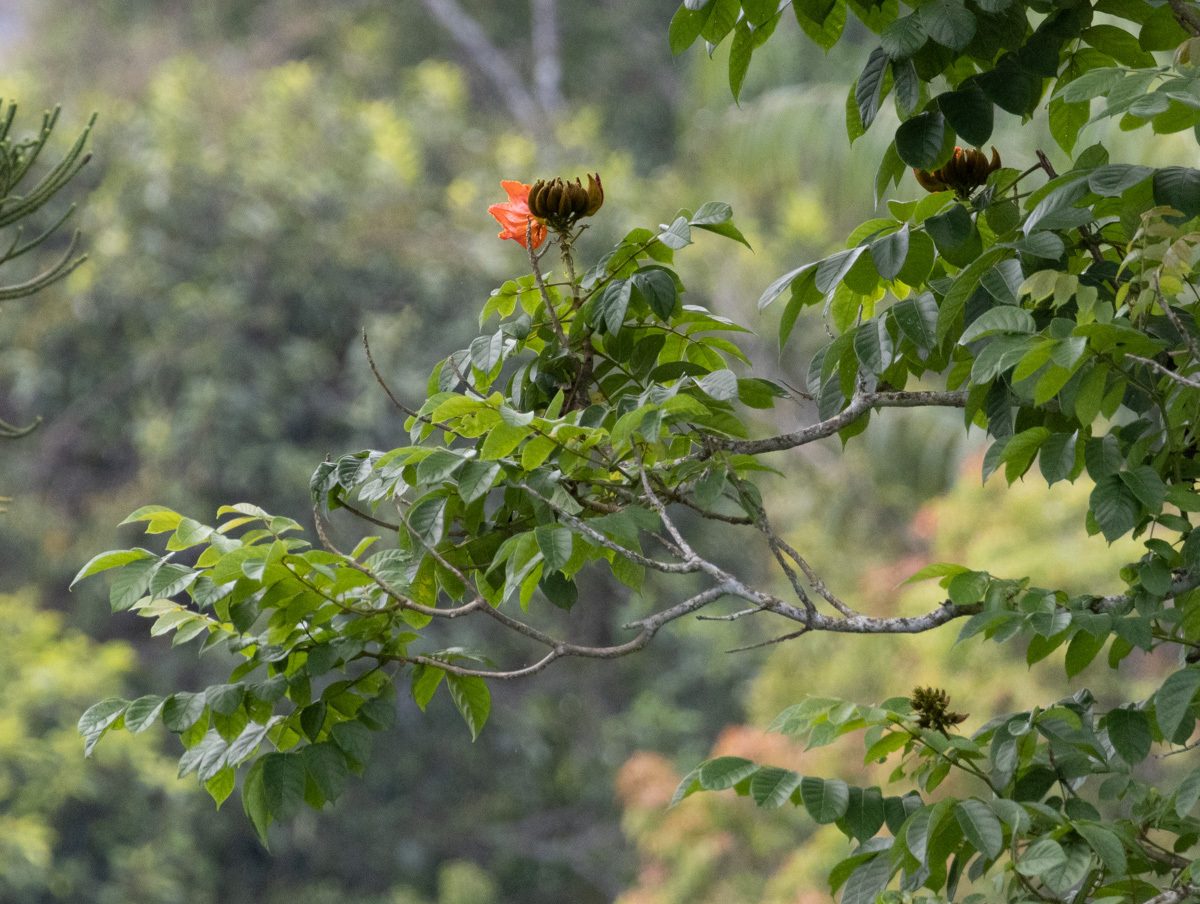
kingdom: Plantae
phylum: Tracheophyta
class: Magnoliopsida
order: Lamiales
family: Bignoniaceae
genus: Spathodea
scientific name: Spathodea campanulata
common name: African tuliptree
